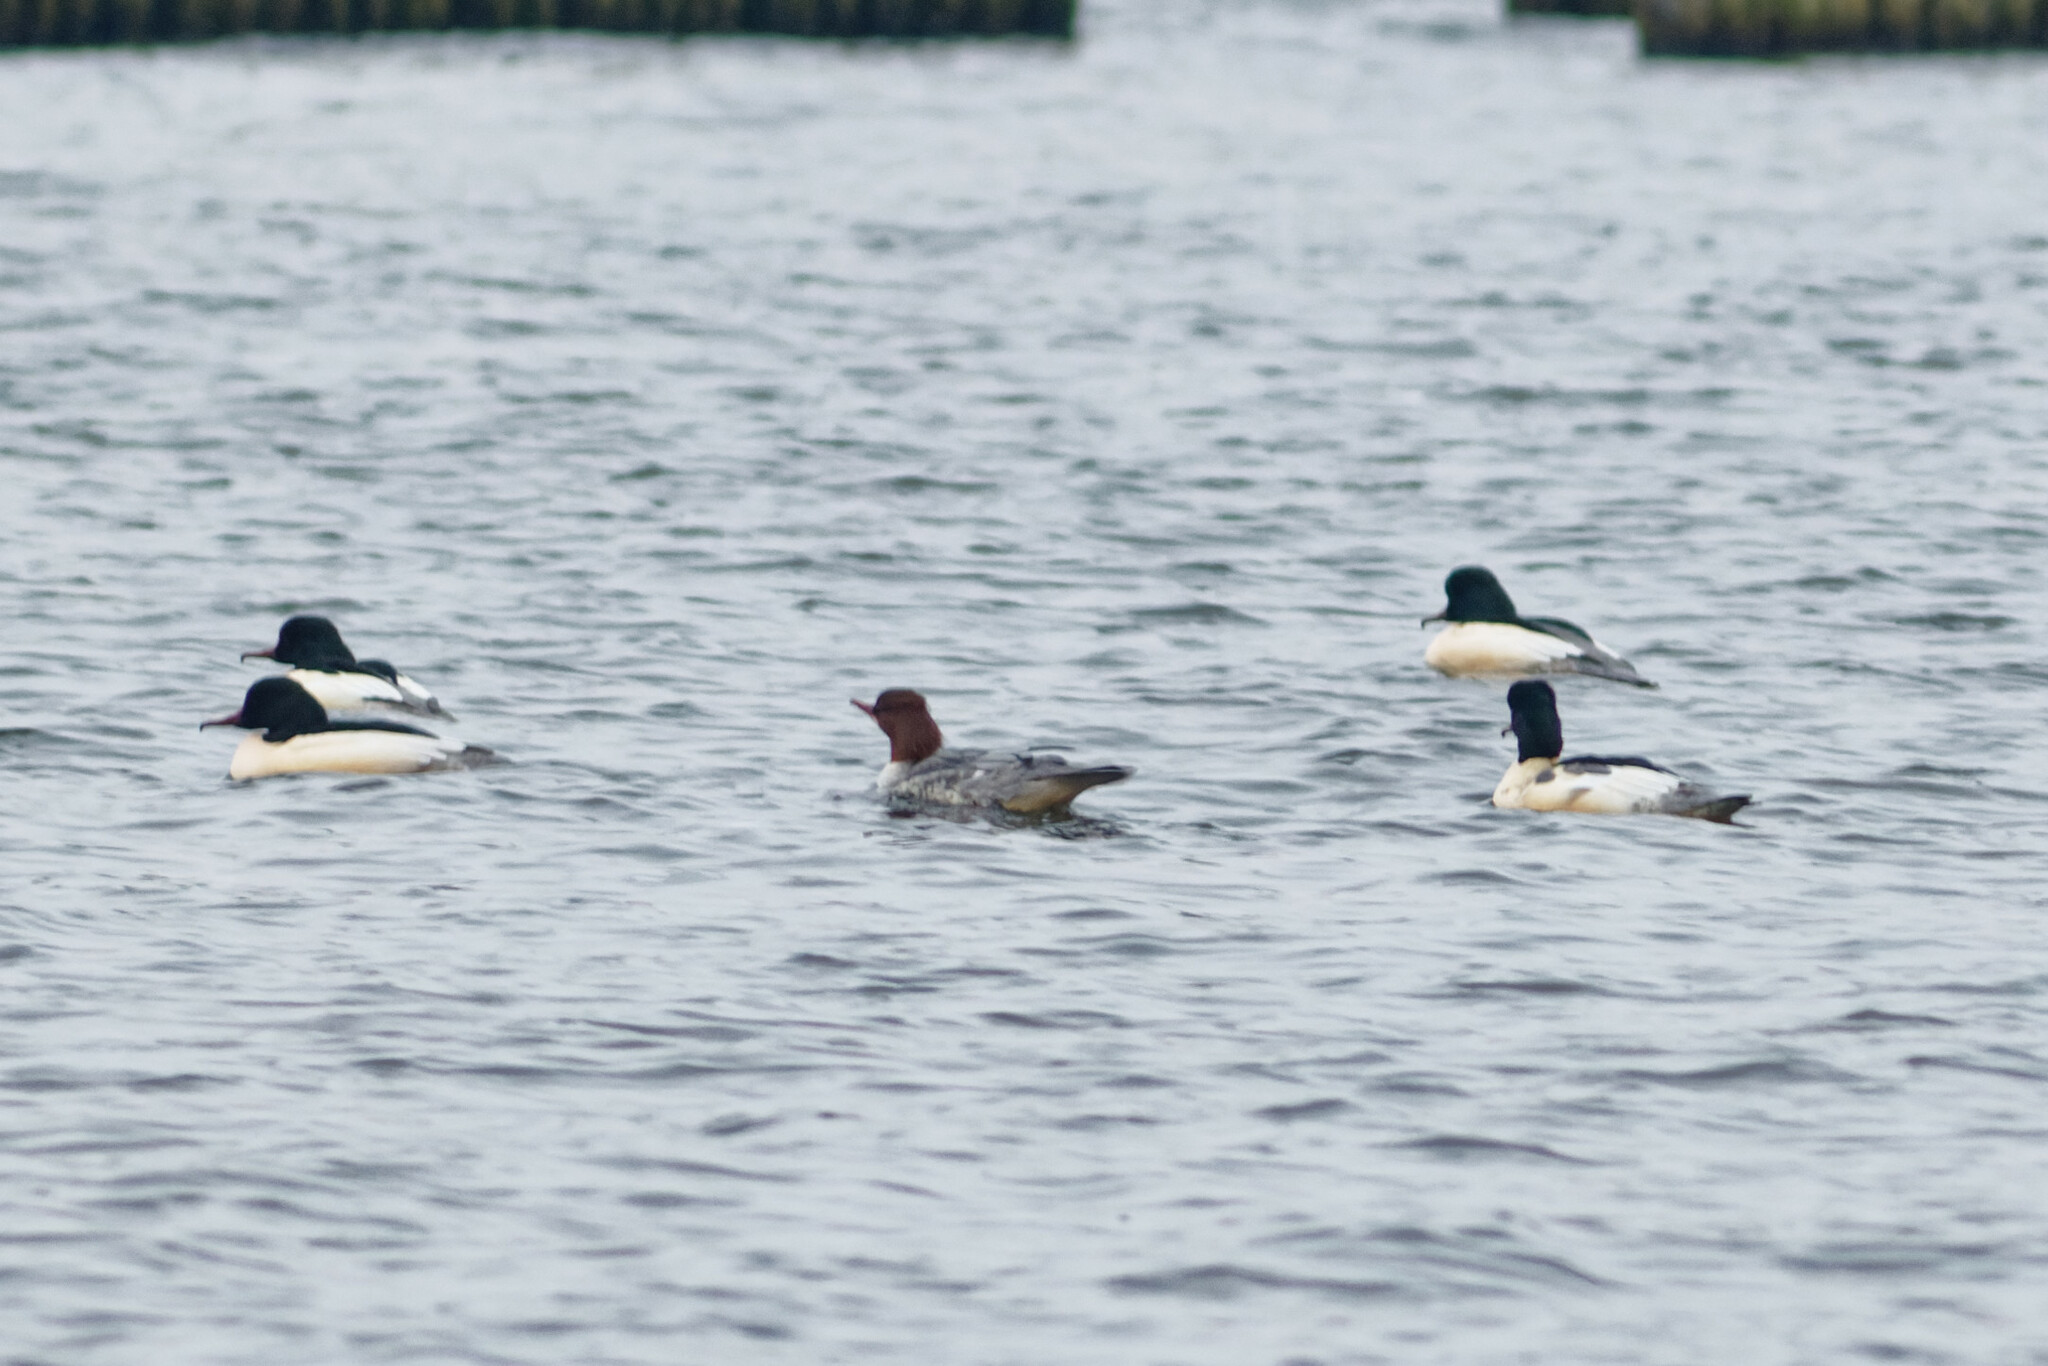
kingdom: Animalia
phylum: Chordata
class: Aves
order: Anseriformes
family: Anatidae
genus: Mergus
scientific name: Mergus merganser
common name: Common merganser
